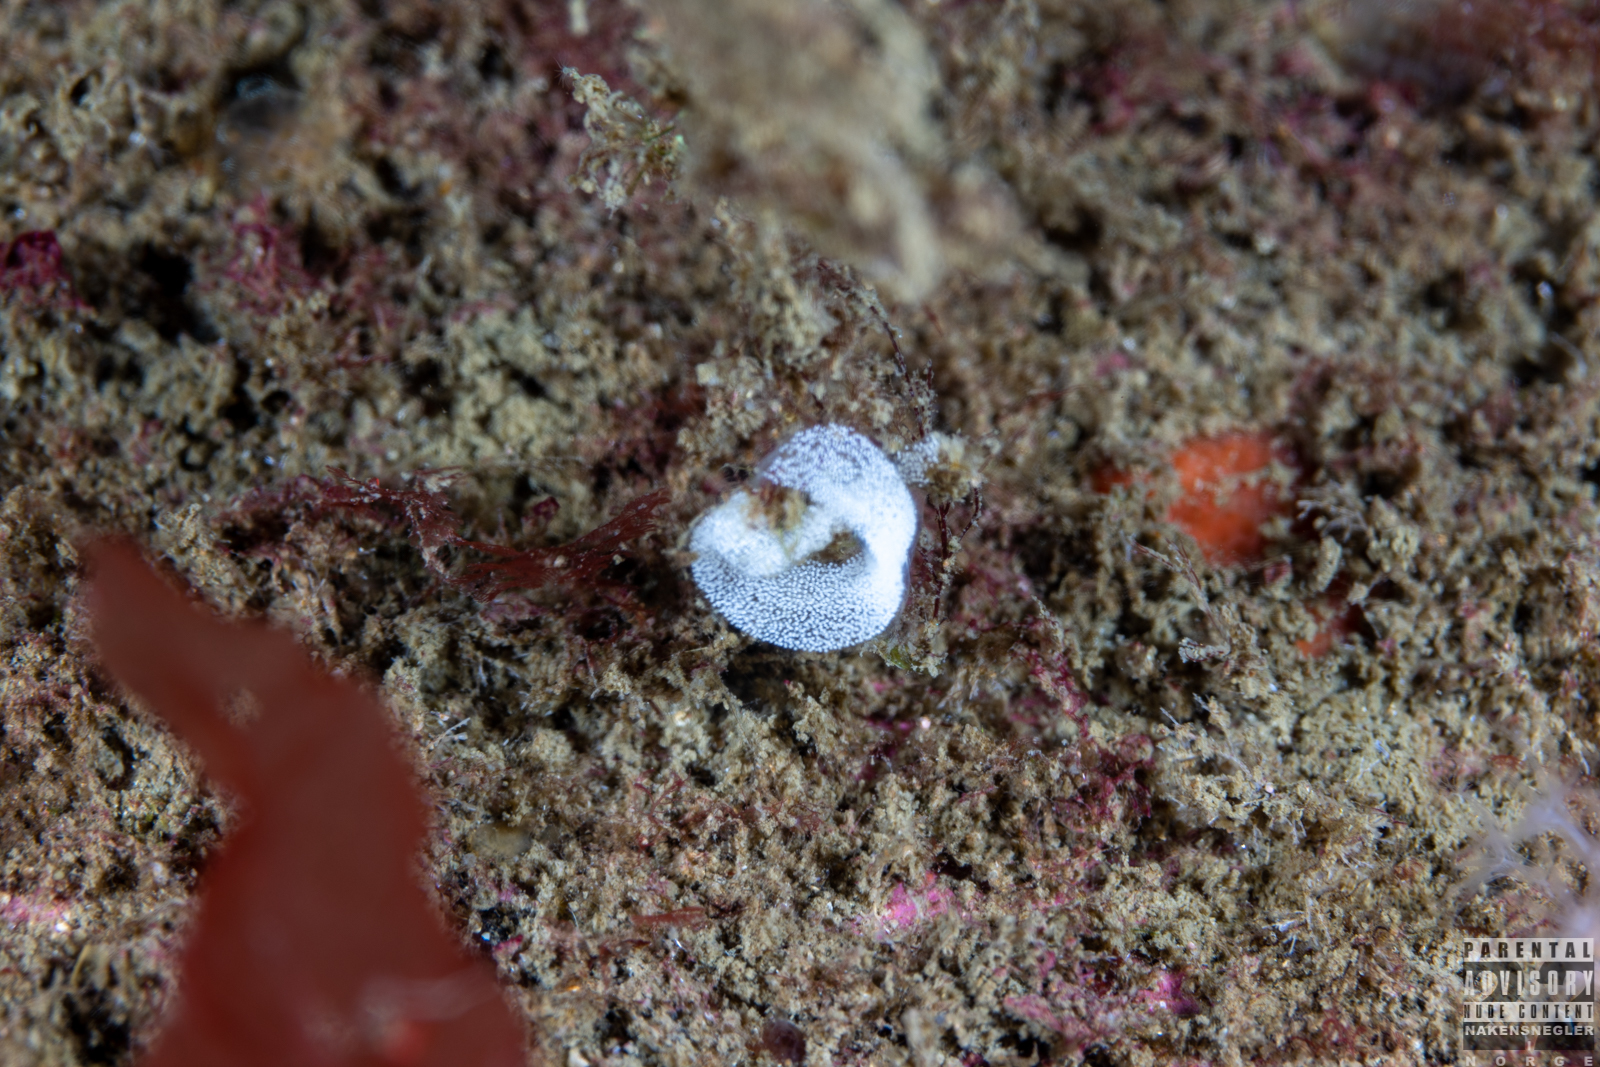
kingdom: Animalia
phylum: Mollusca
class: Gastropoda
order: Nudibranchia
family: Eubranchidae
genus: Eubranchus
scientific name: Eubranchus tricolor
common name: Painted balloon aeolis
